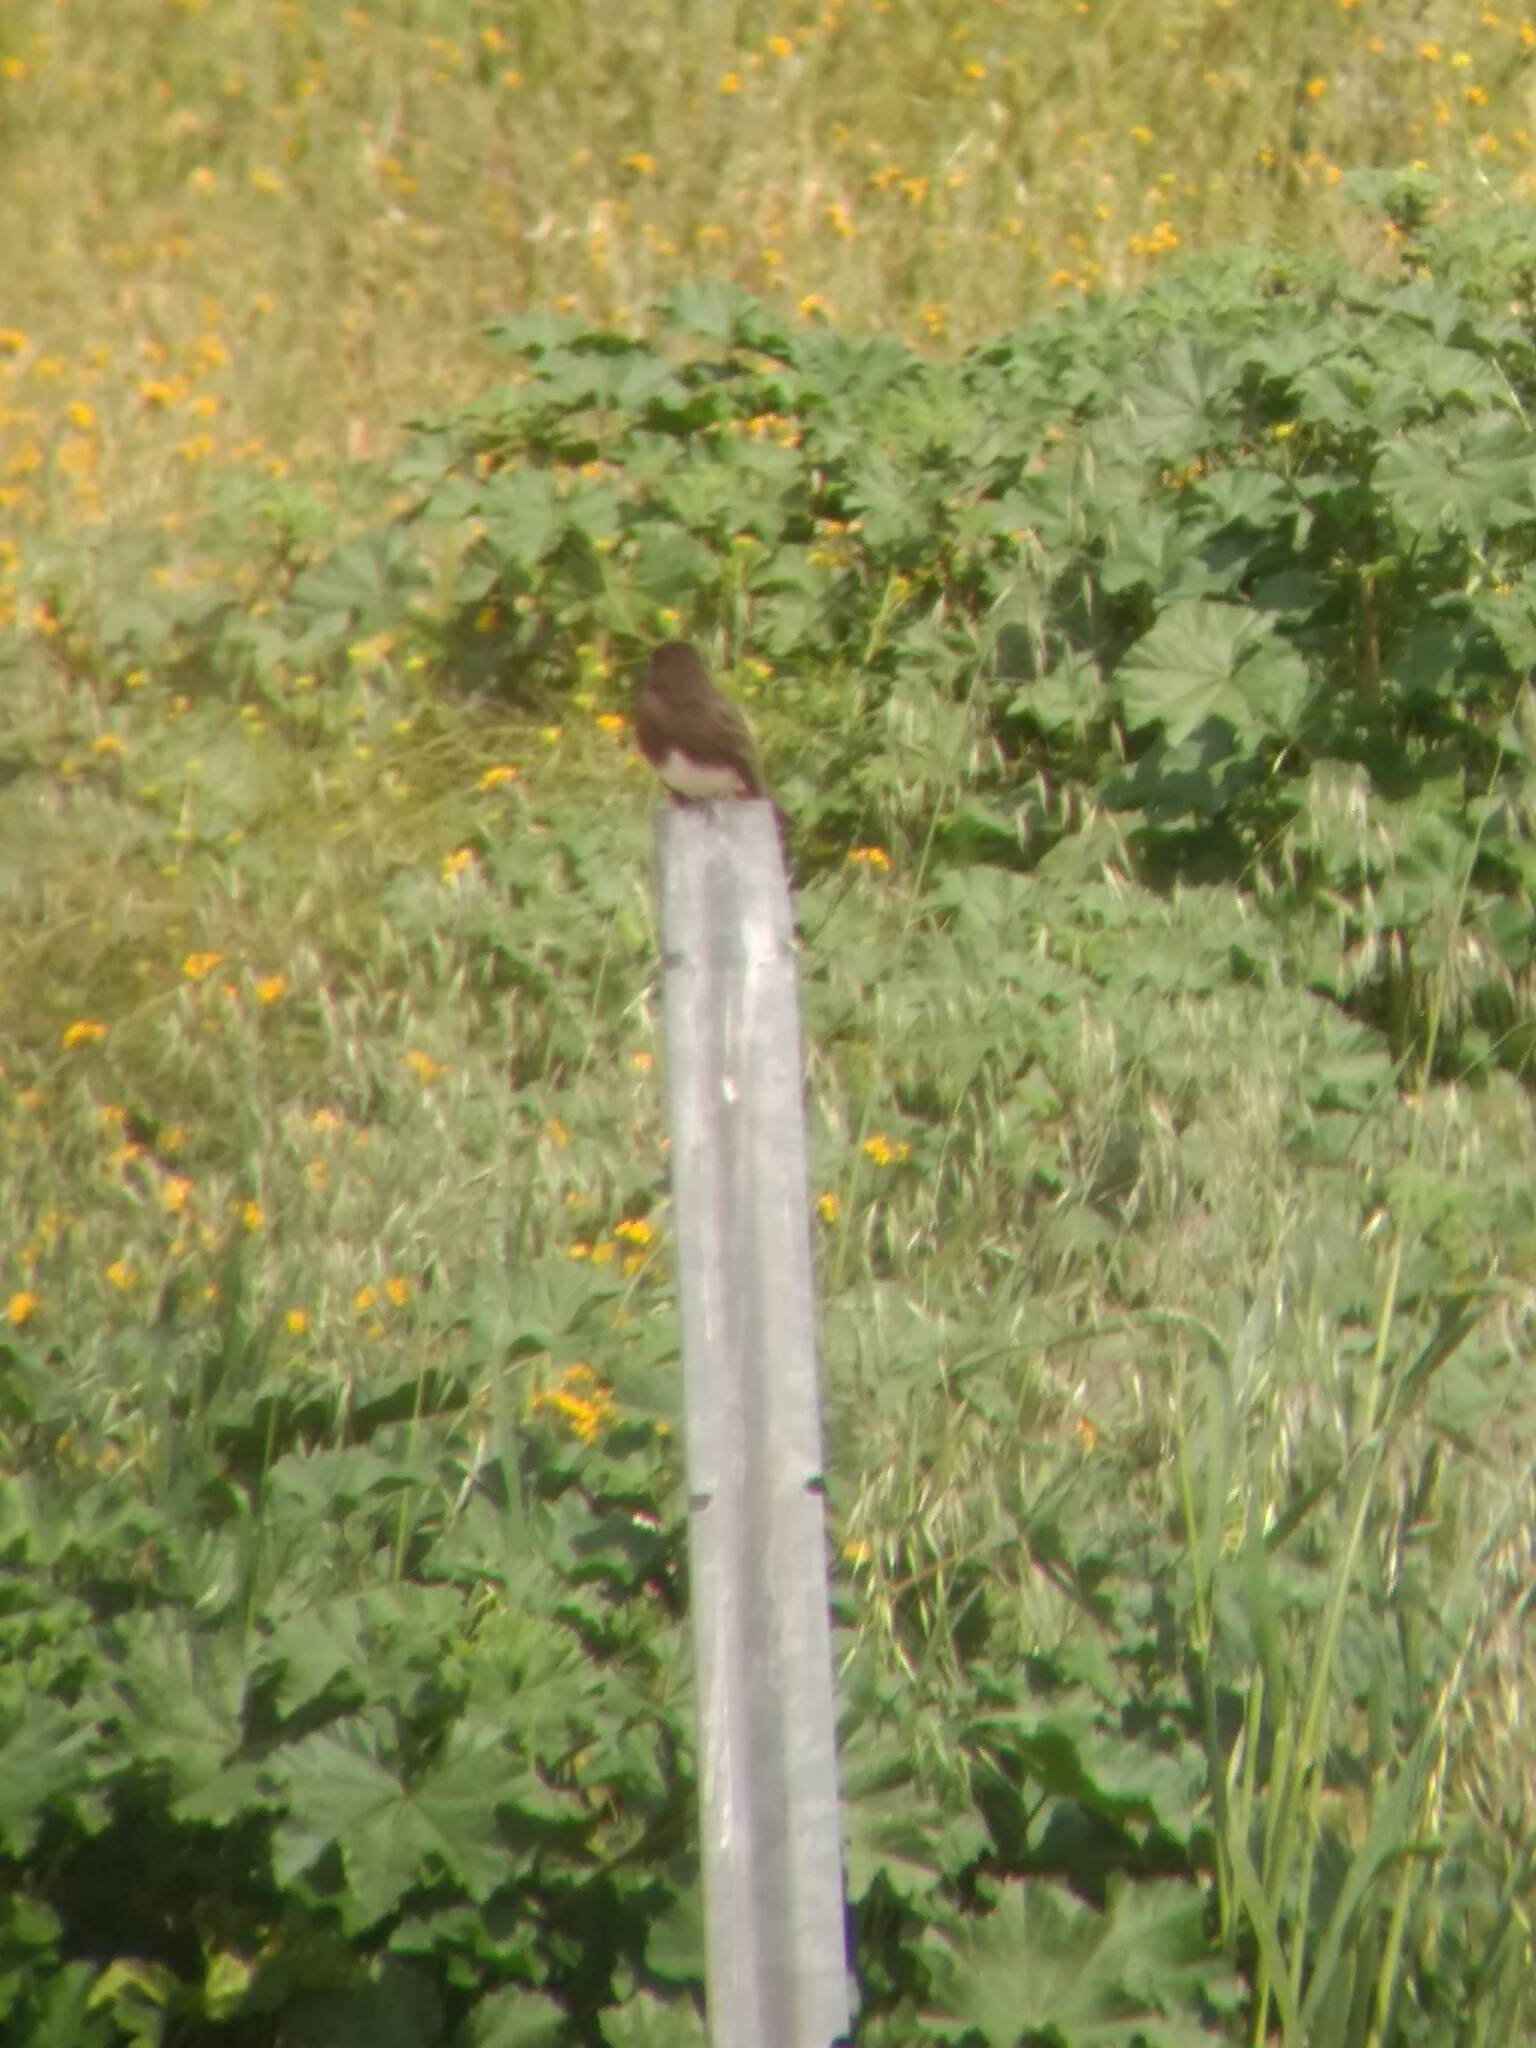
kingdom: Animalia
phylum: Chordata
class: Aves
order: Passeriformes
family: Tyrannidae
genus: Sayornis
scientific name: Sayornis nigricans
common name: Black phoebe
